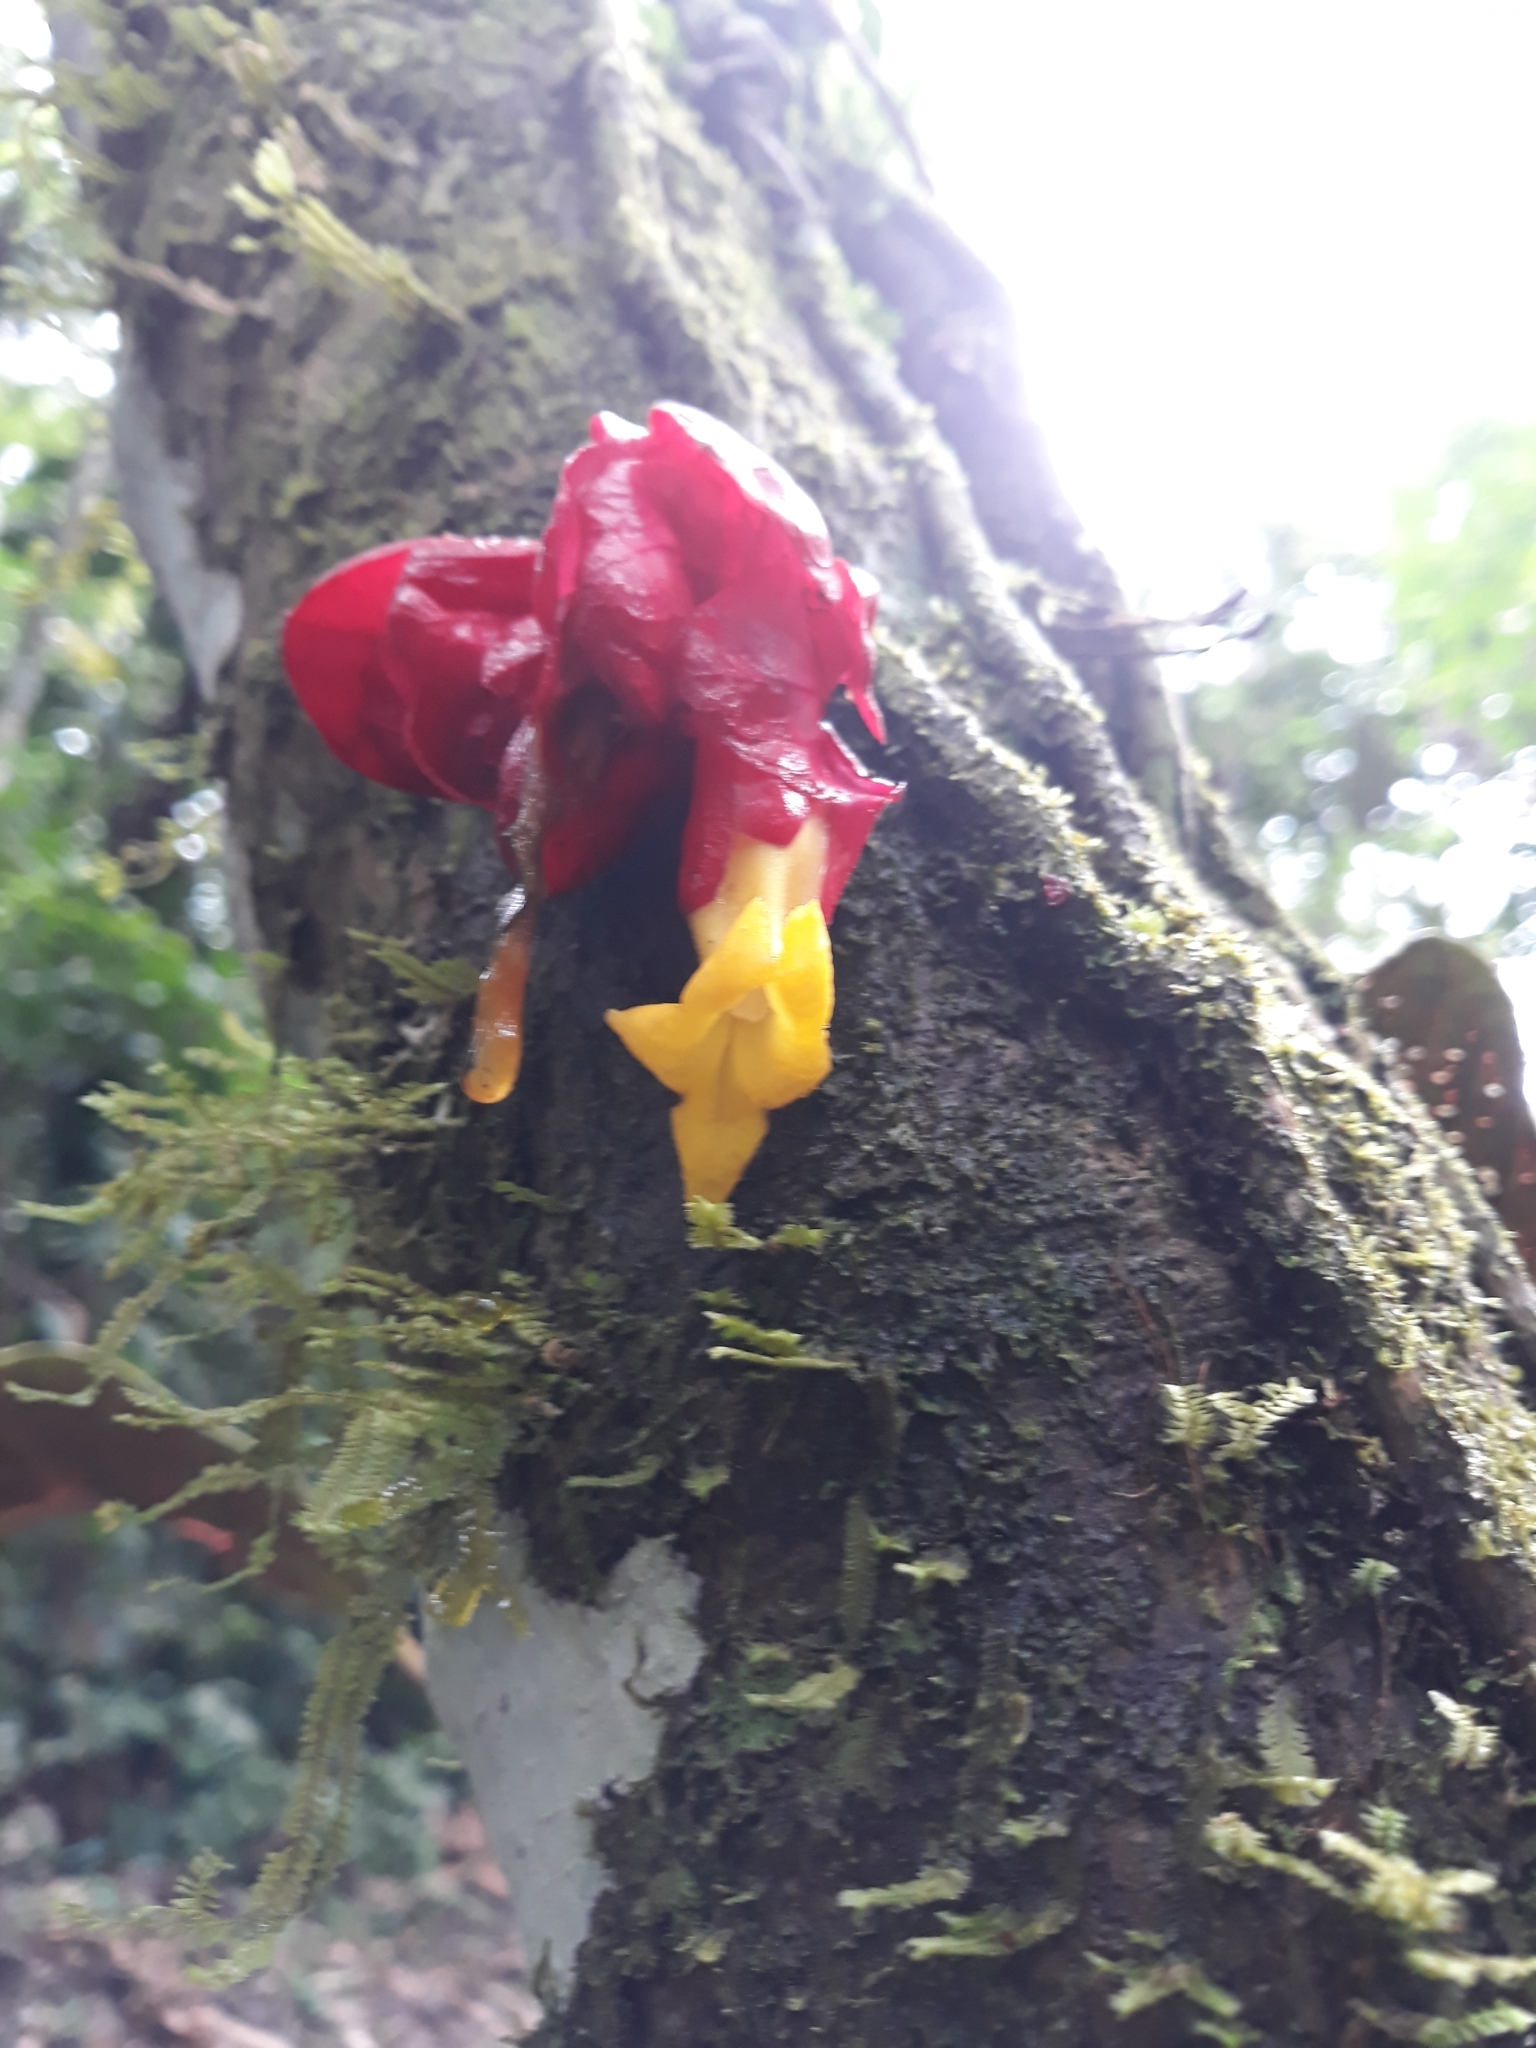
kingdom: Plantae
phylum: Tracheophyta
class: Magnoliopsida
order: Lamiales
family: Gesneriaceae
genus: Drymonia
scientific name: Drymonia coccinea
